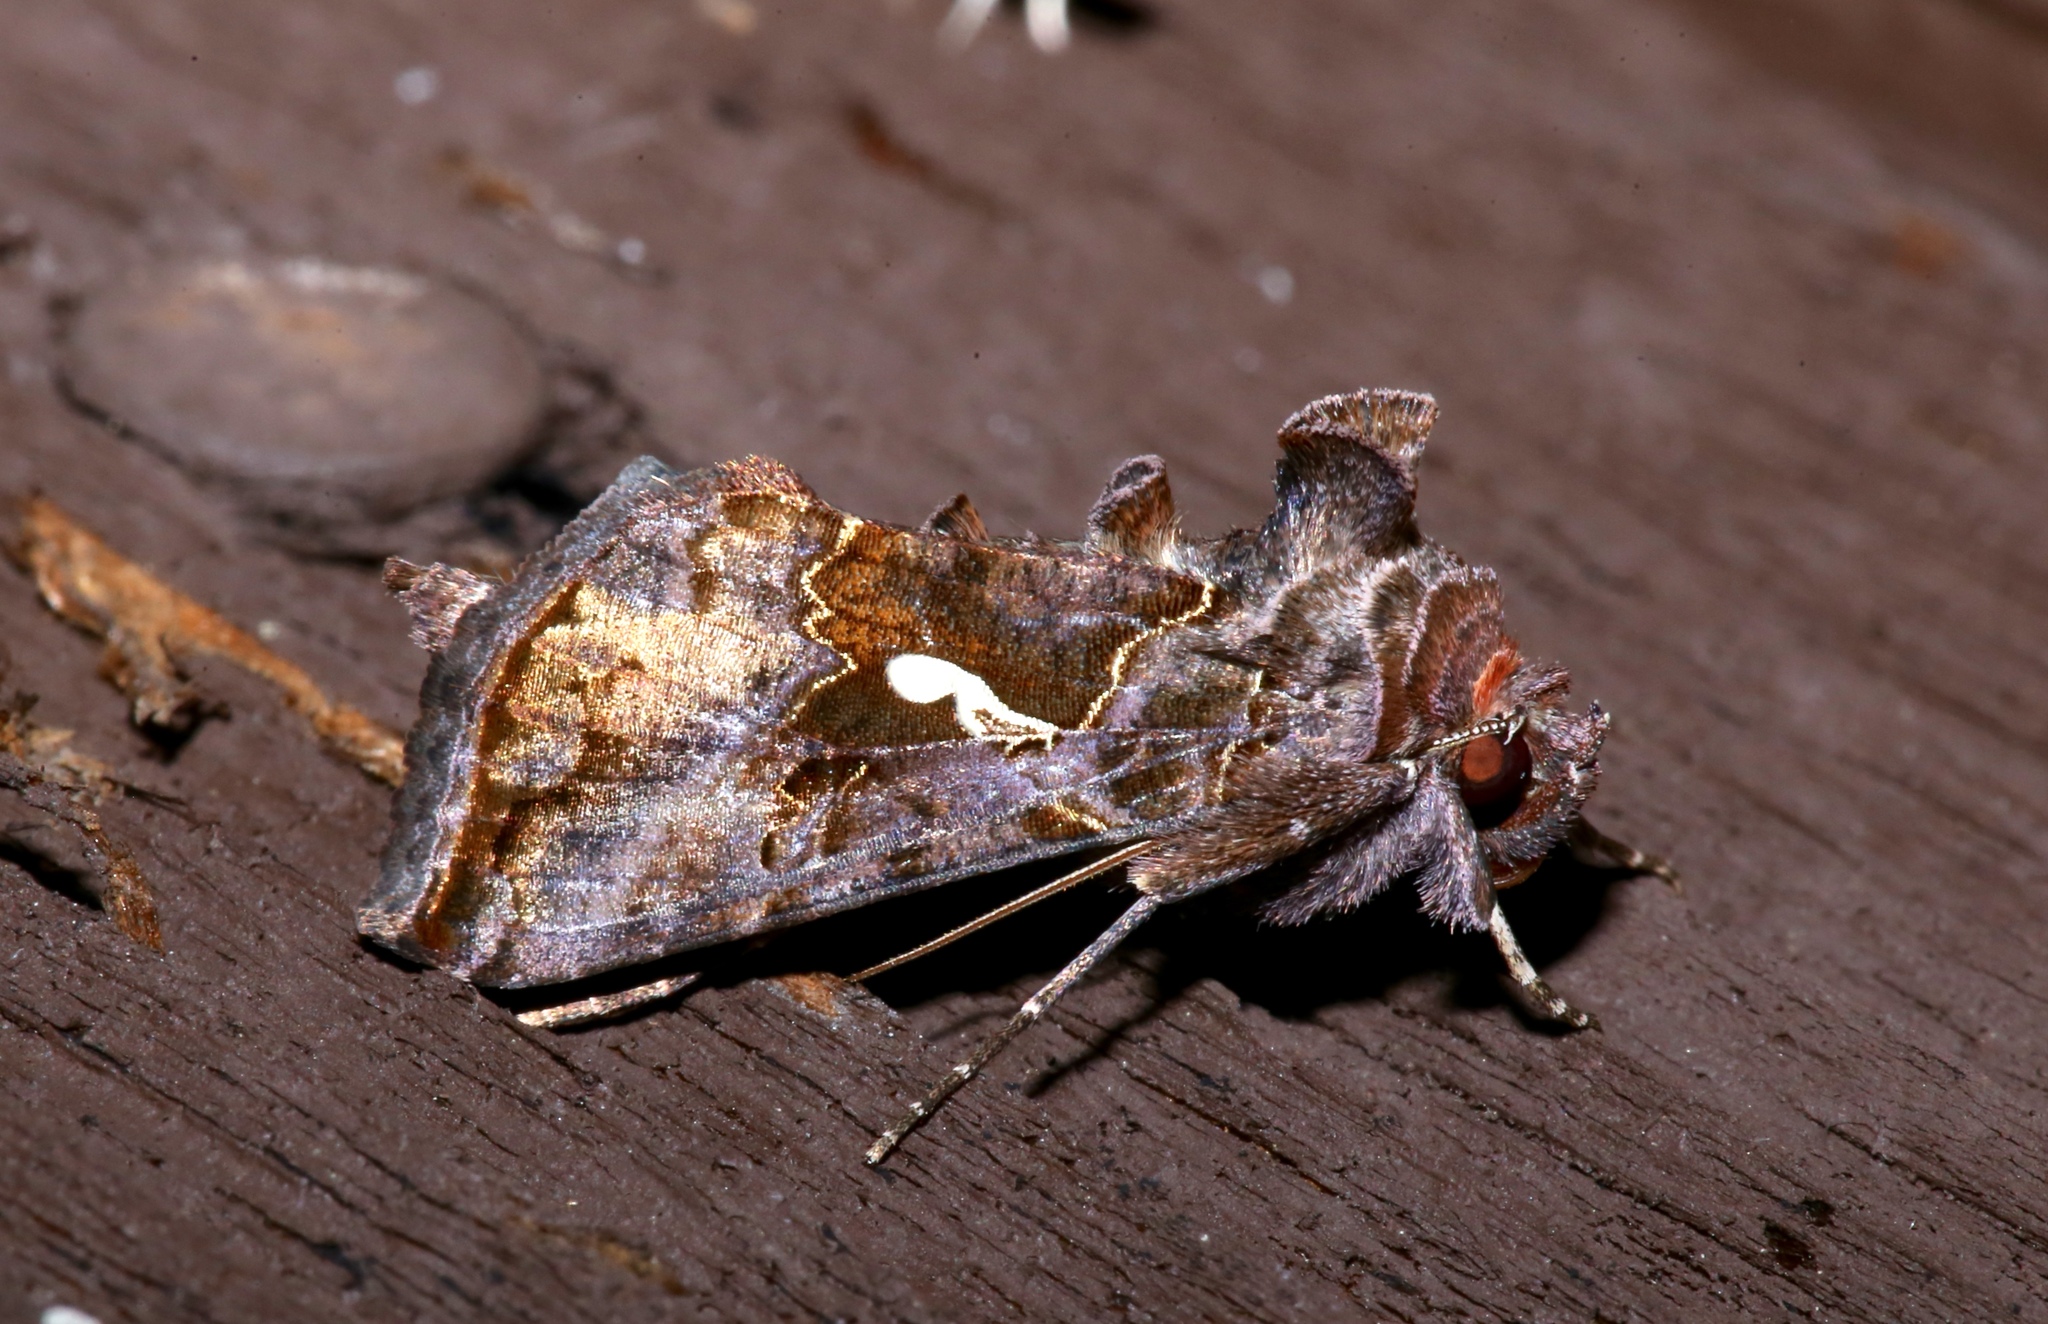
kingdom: Animalia
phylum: Arthropoda
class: Insecta
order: Lepidoptera
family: Noctuidae
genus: Autographa
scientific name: Autographa precationis
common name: Common looper moth
